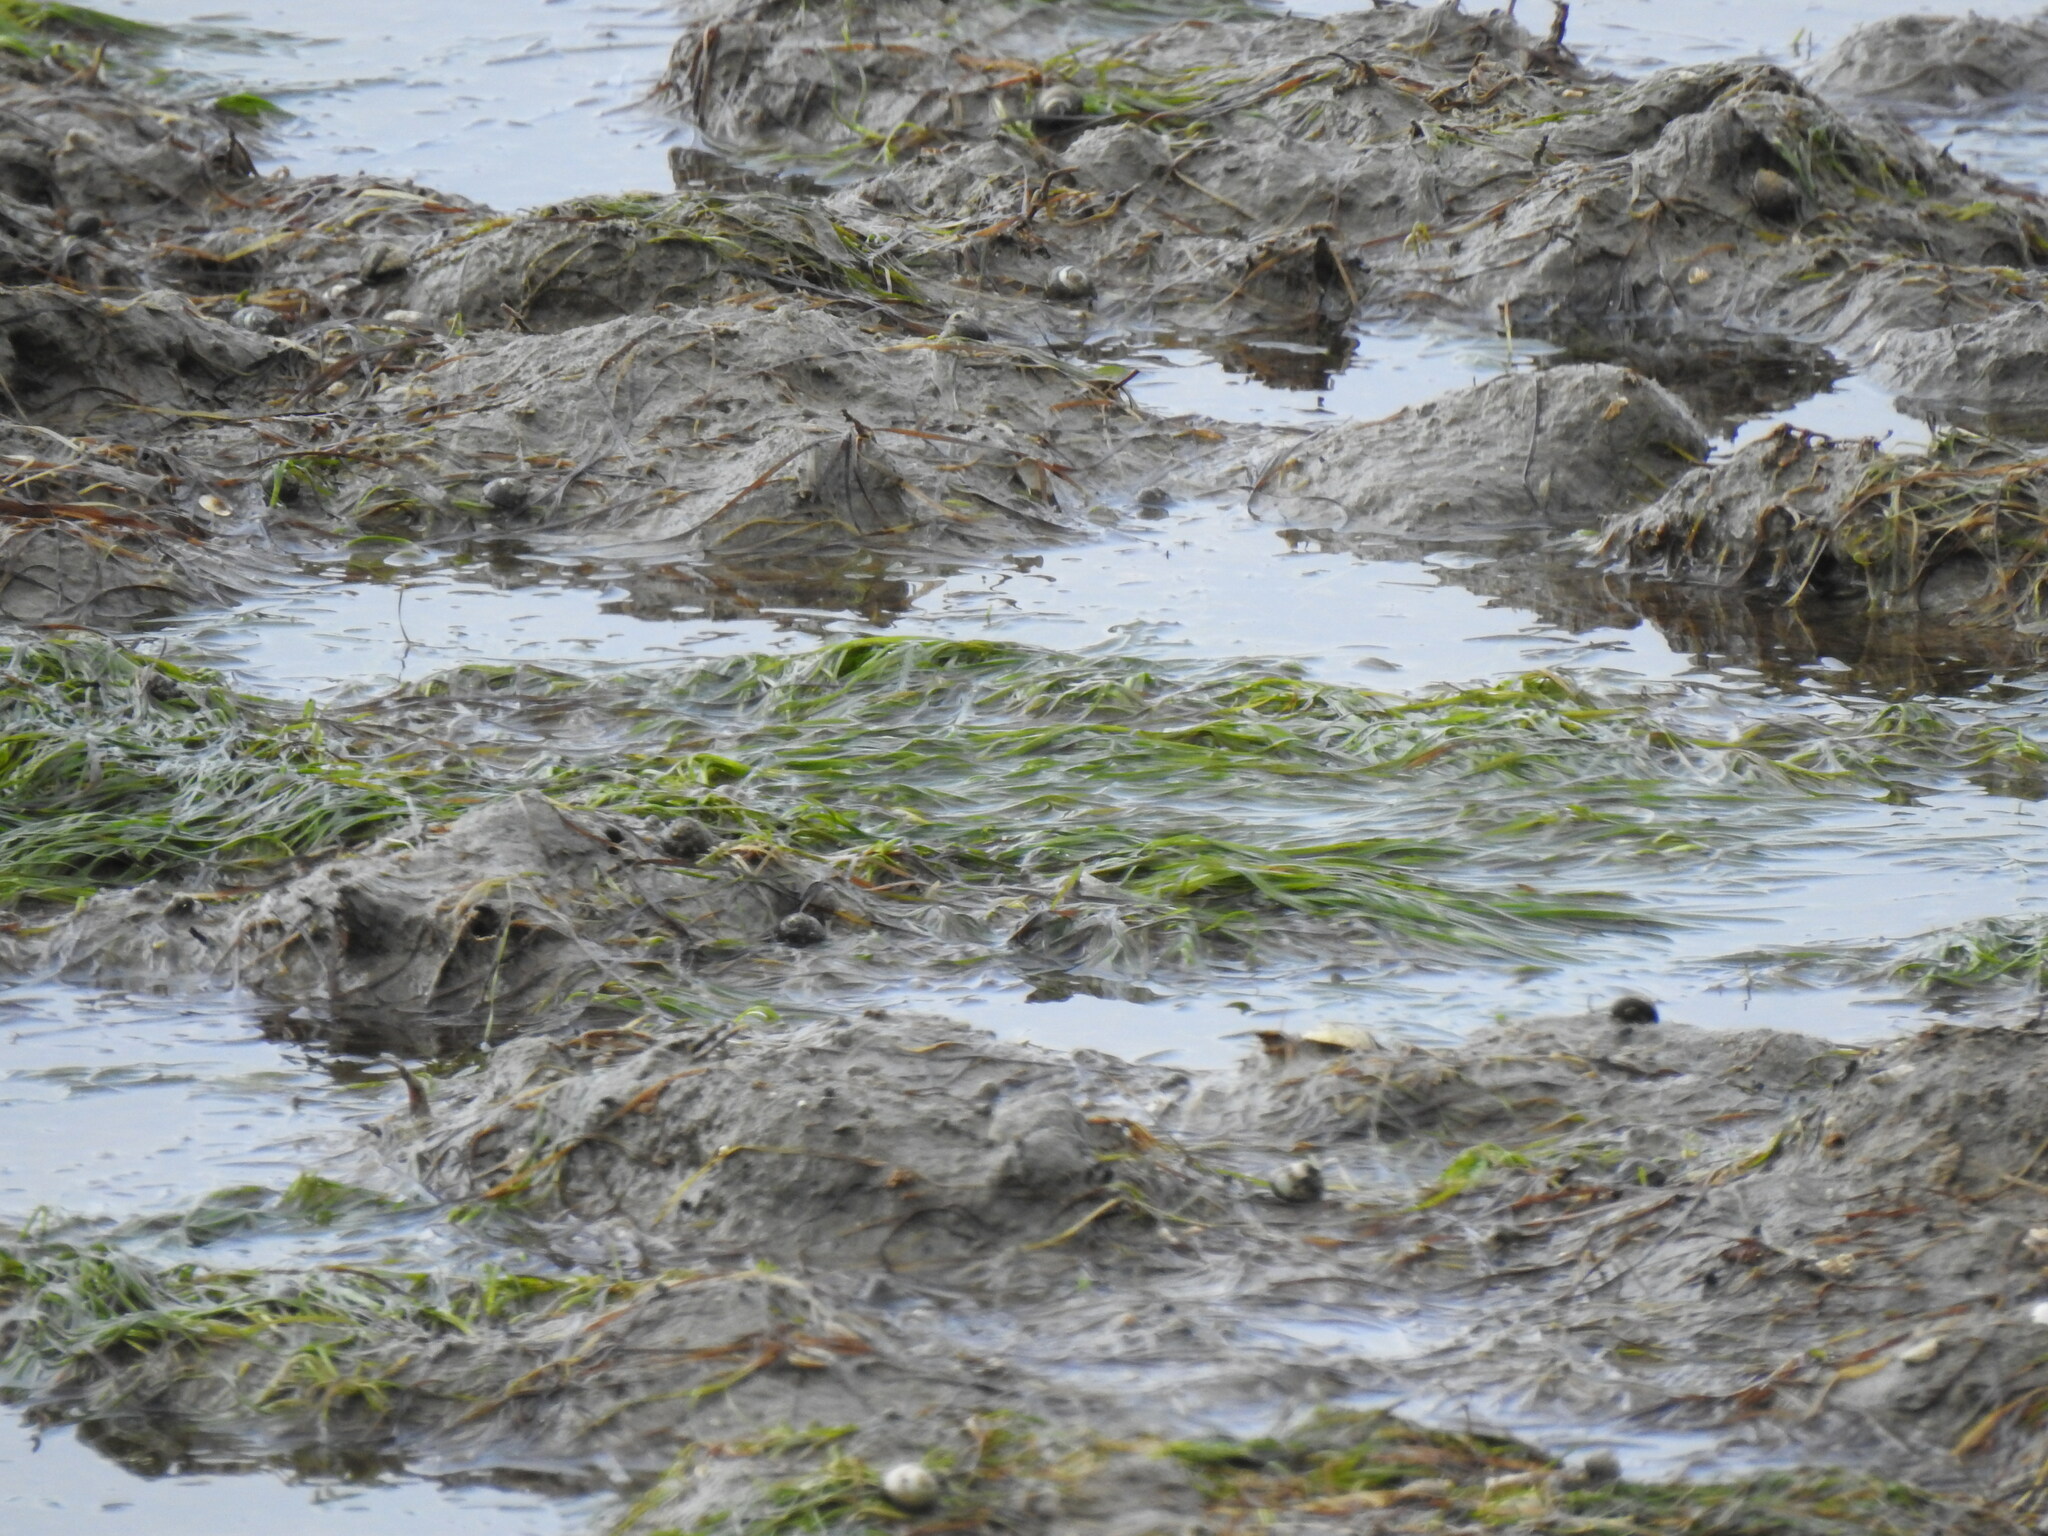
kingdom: Plantae
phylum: Tracheophyta
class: Liliopsida
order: Alismatales
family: Zosteraceae
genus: Zostera
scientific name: Zostera noltii
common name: Dwarf eelgrass
